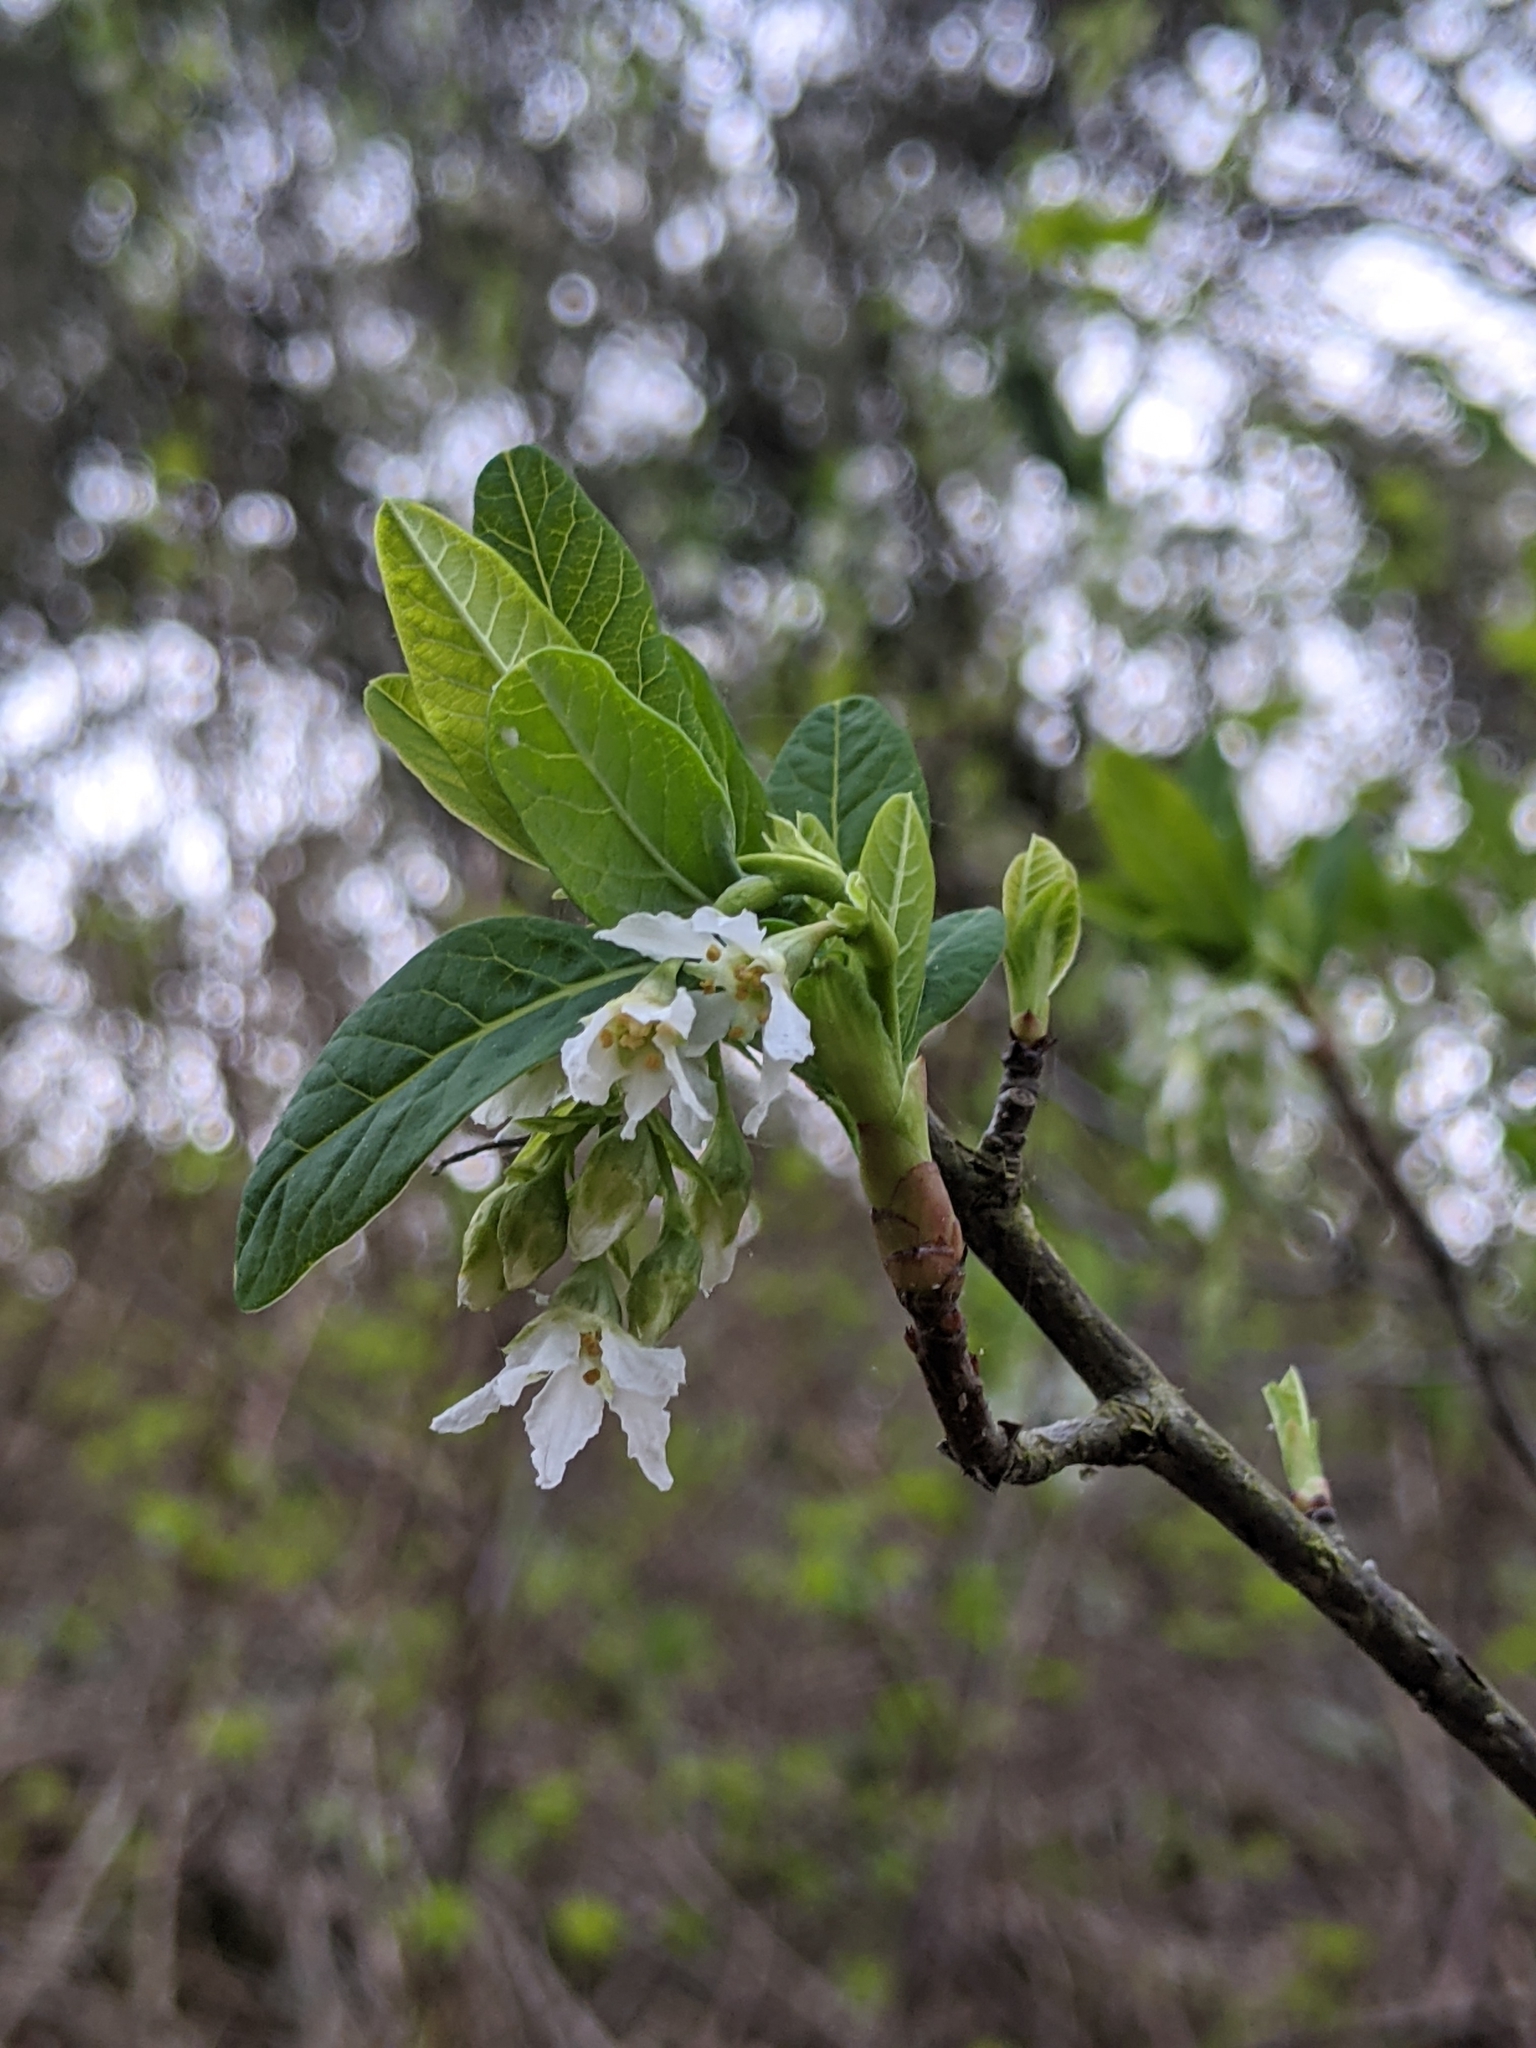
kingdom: Plantae
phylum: Tracheophyta
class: Magnoliopsida
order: Rosales
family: Rosaceae
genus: Oemleria
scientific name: Oemleria cerasiformis
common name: Osoberry
